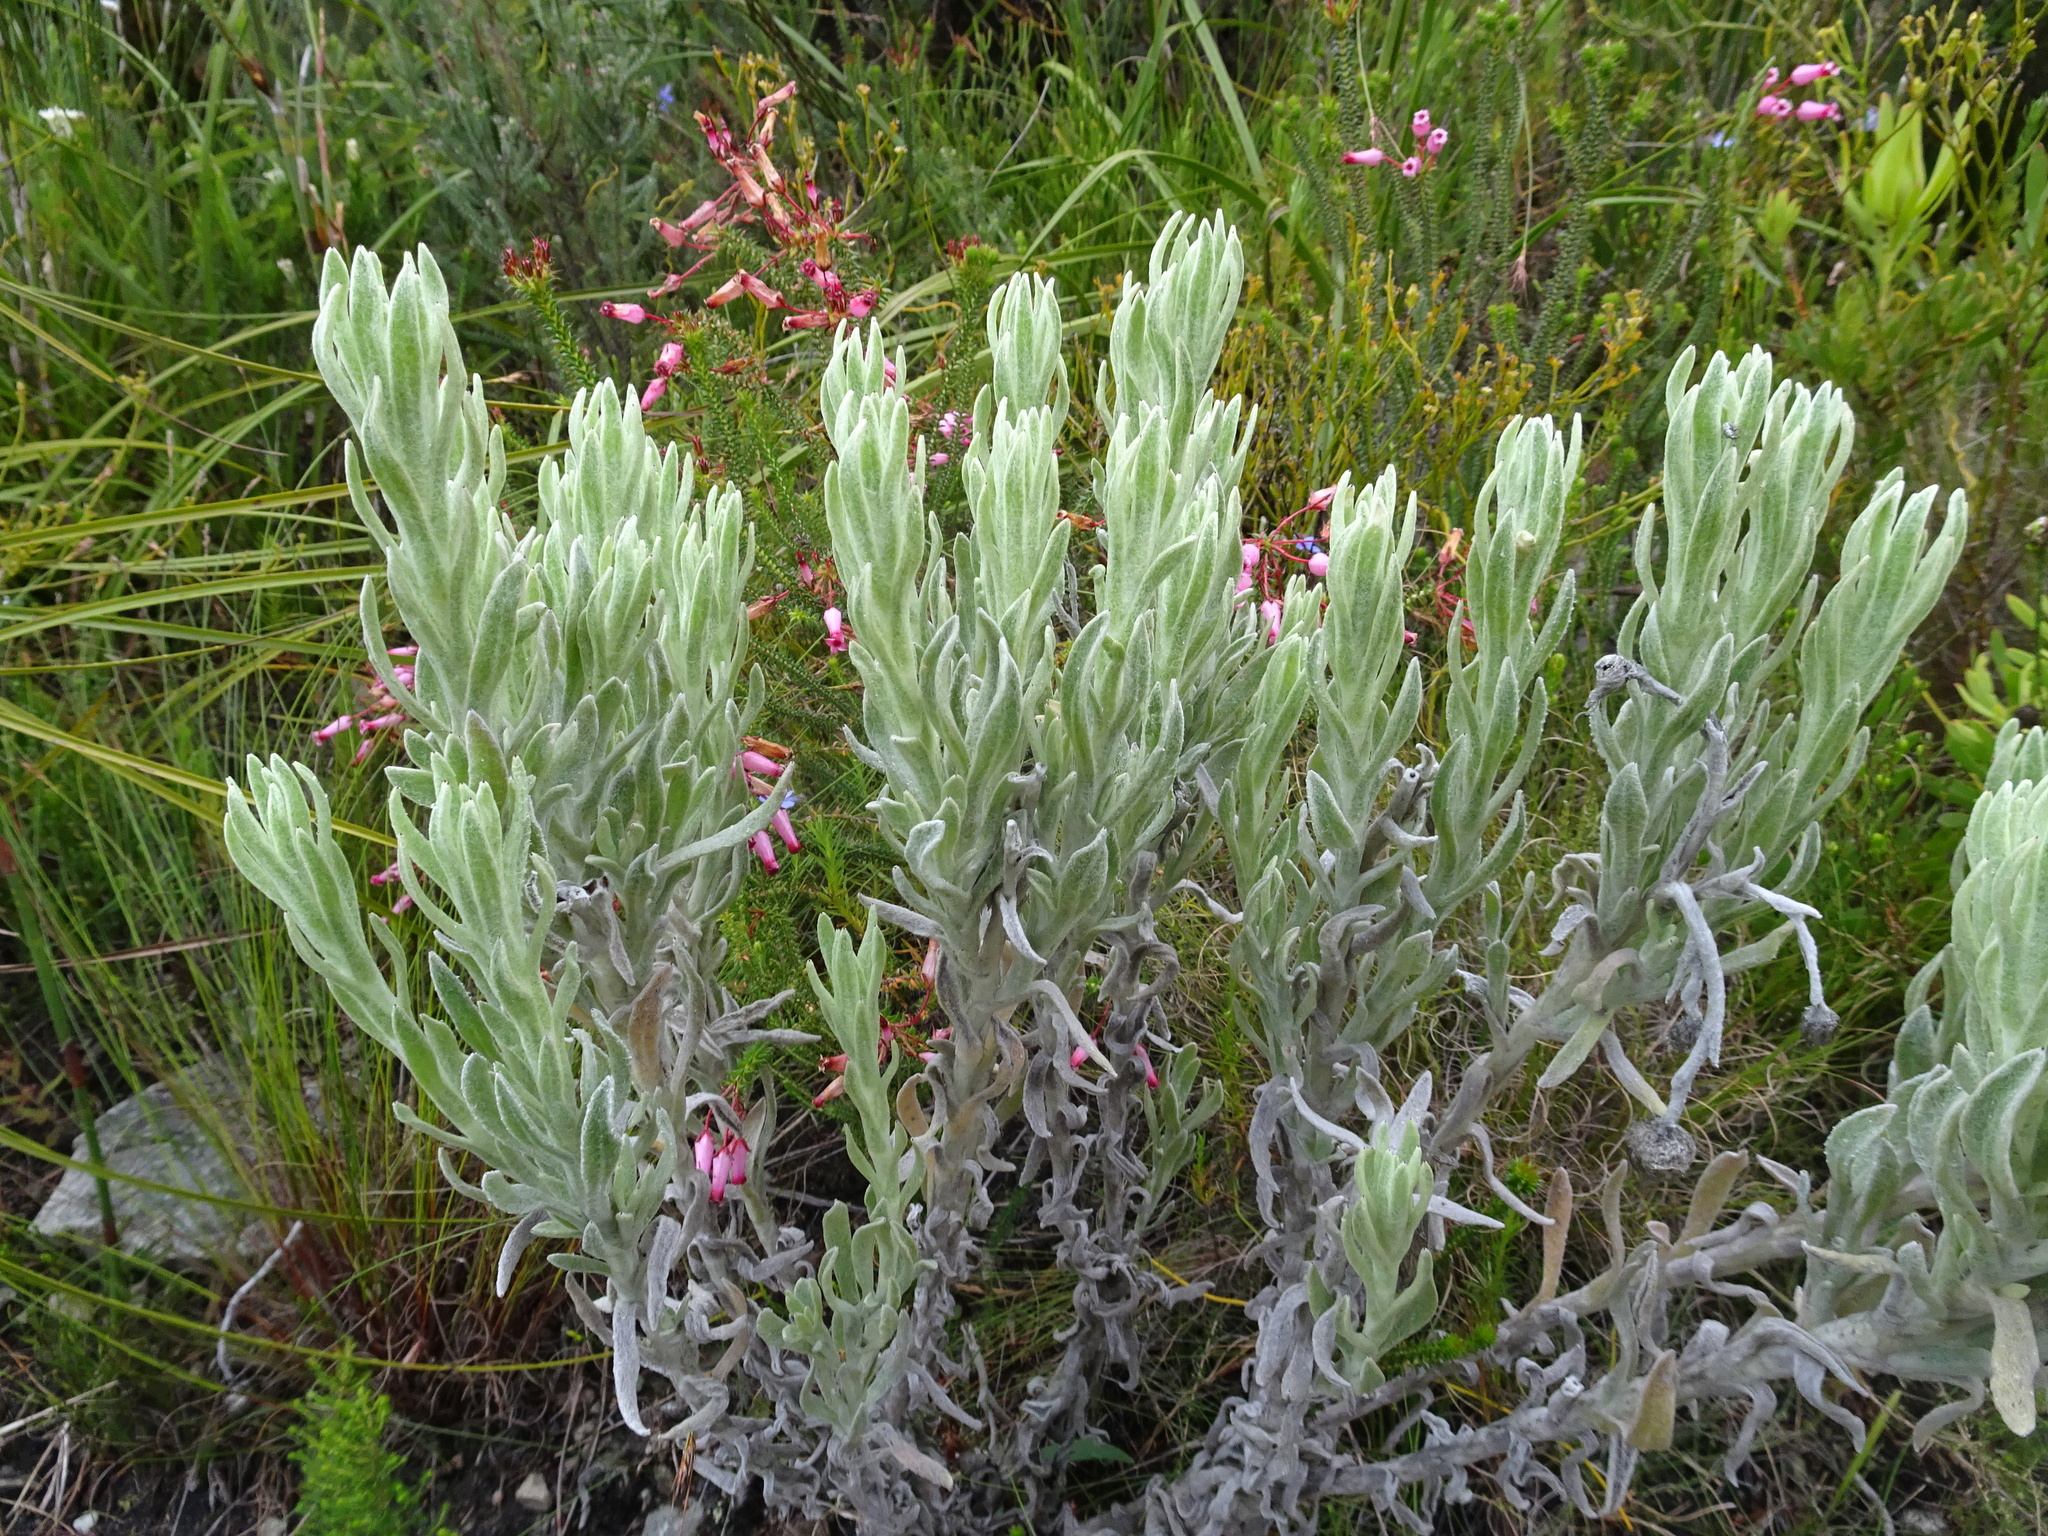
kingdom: Plantae
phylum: Tracheophyta
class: Magnoliopsida
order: Asterales
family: Asteraceae
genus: Syncarpha
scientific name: Syncarpha vestita
